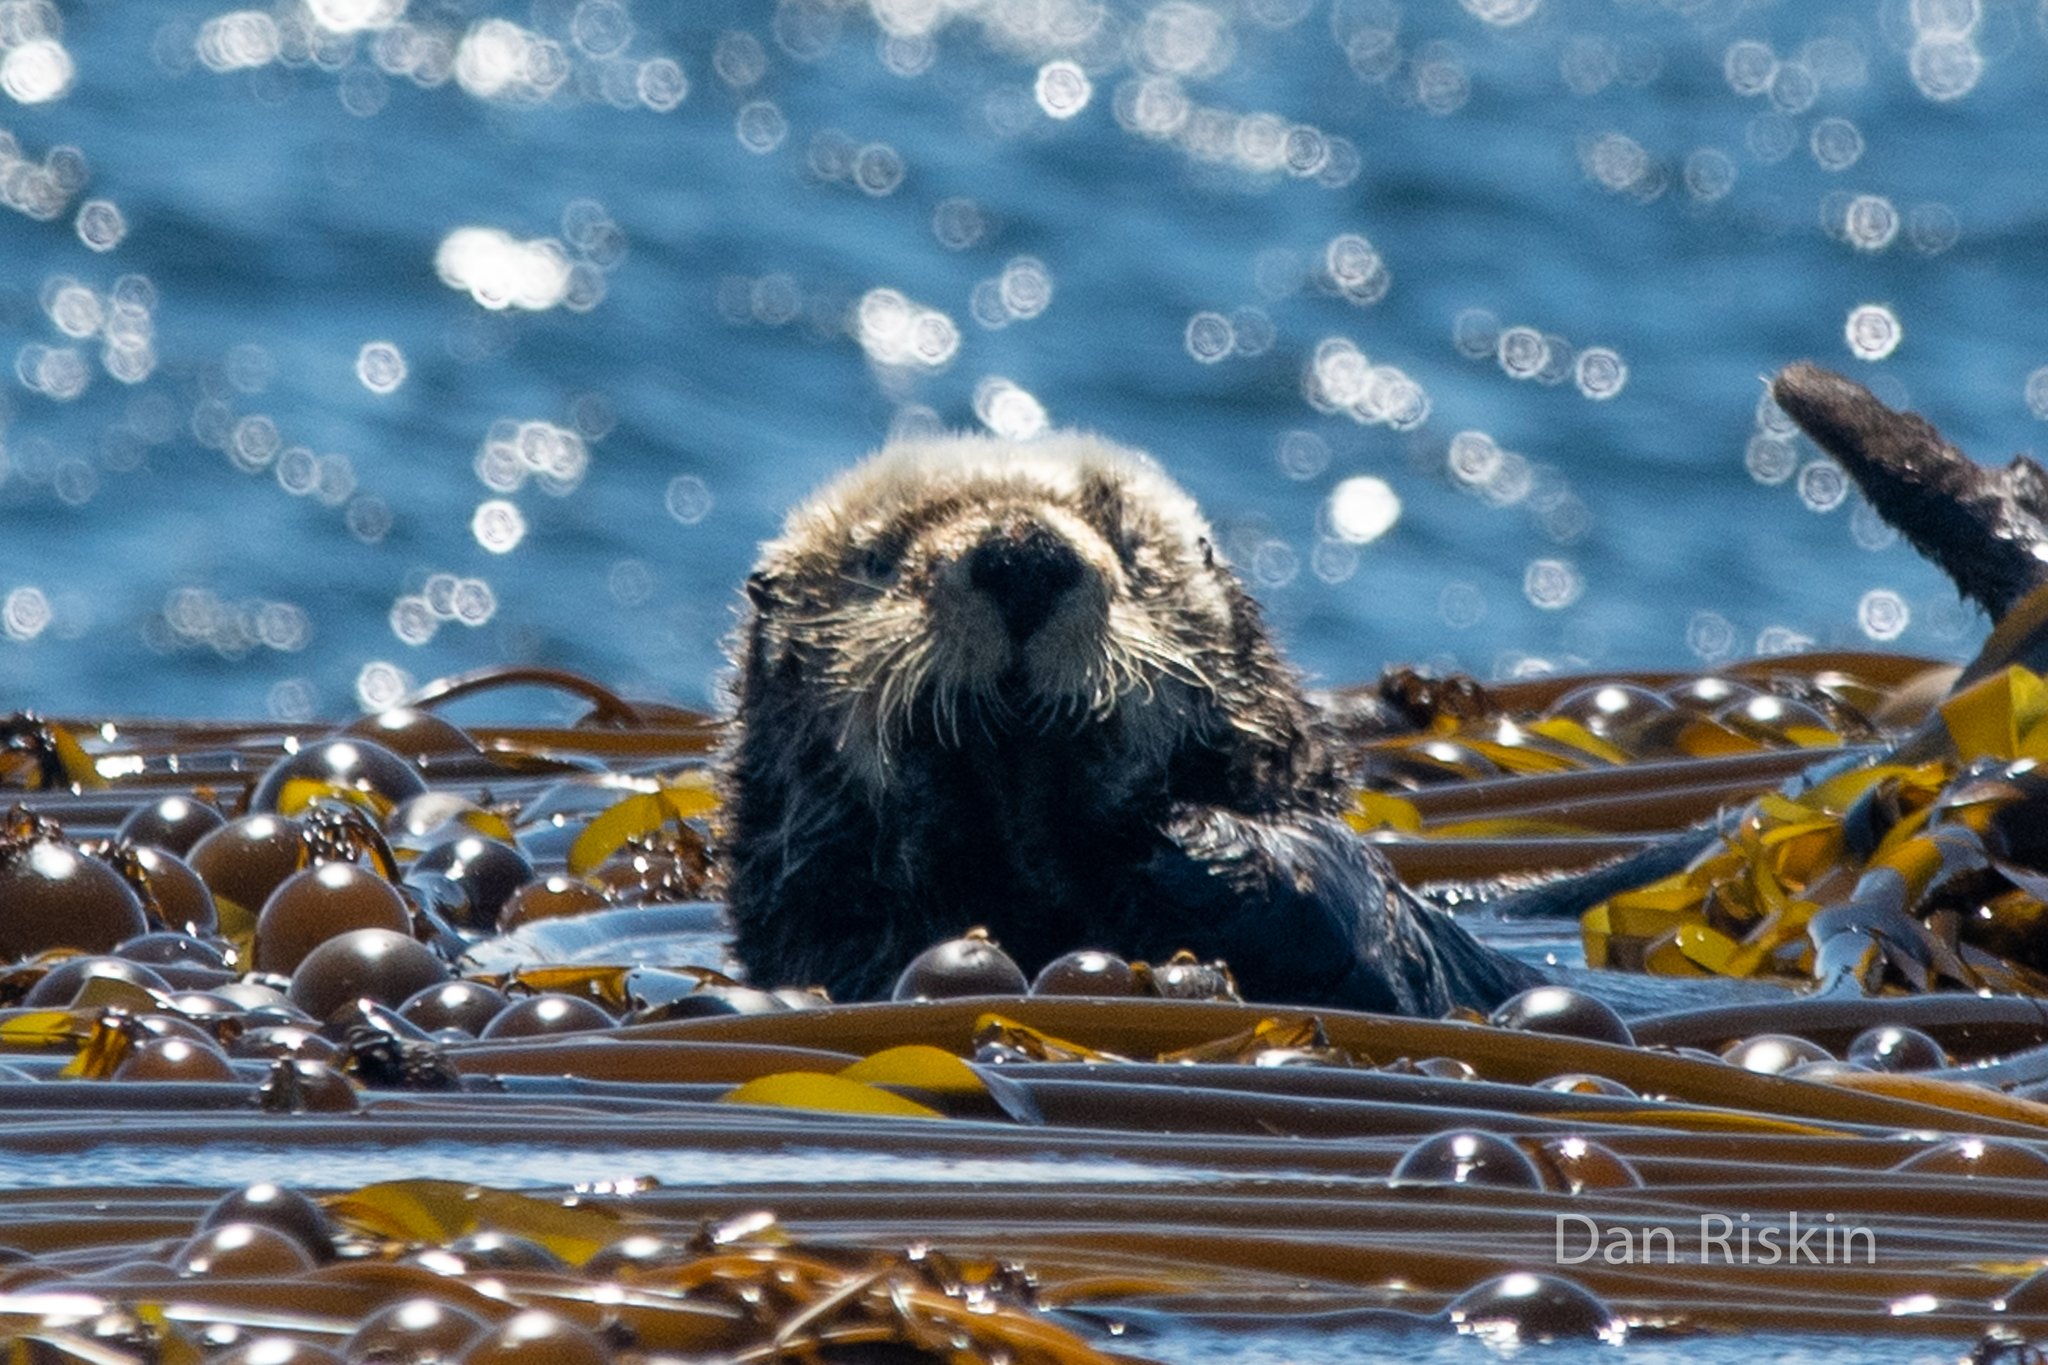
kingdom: Animalia
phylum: Chordata
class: Mammalia
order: Carnivora
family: Mustelidae
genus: Enhydra
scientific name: Enhydra lutris
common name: Sea otter
